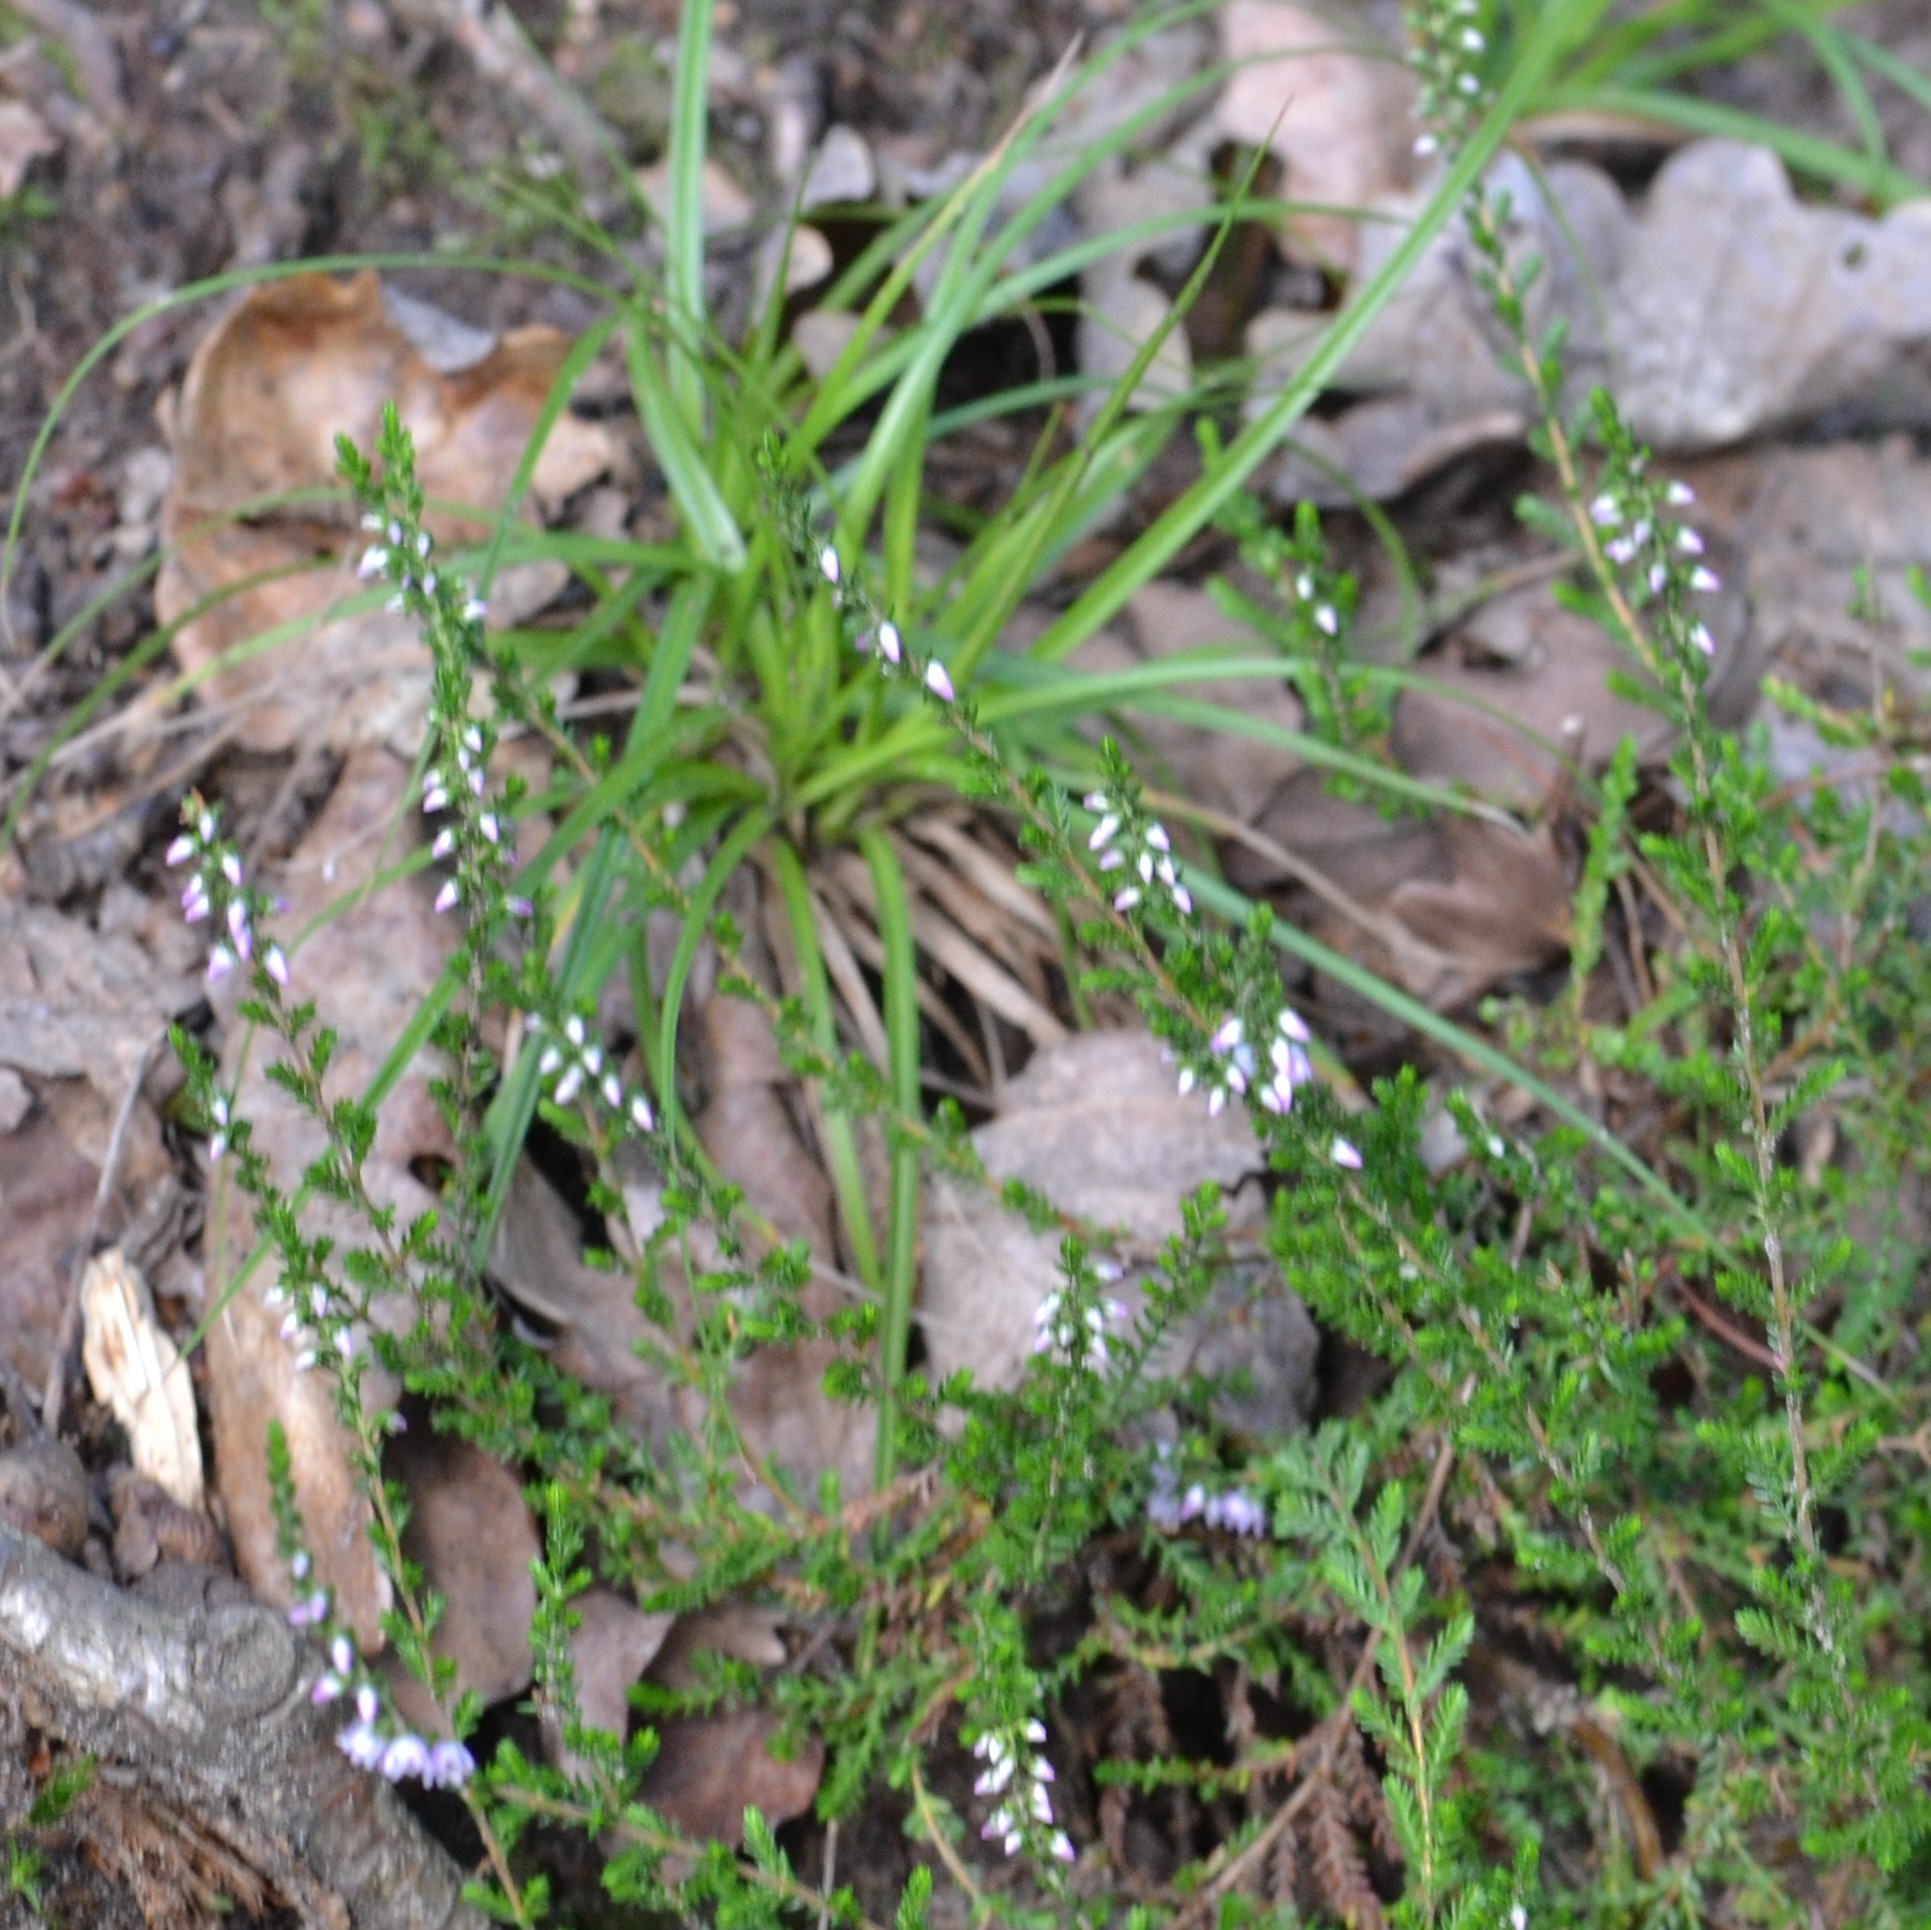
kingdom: Plantae
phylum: Tracheophyta
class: Magnoliopsida
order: Ericales
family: Ericaceae
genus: Calluna
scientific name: Calluna vulgaris
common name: Heather
